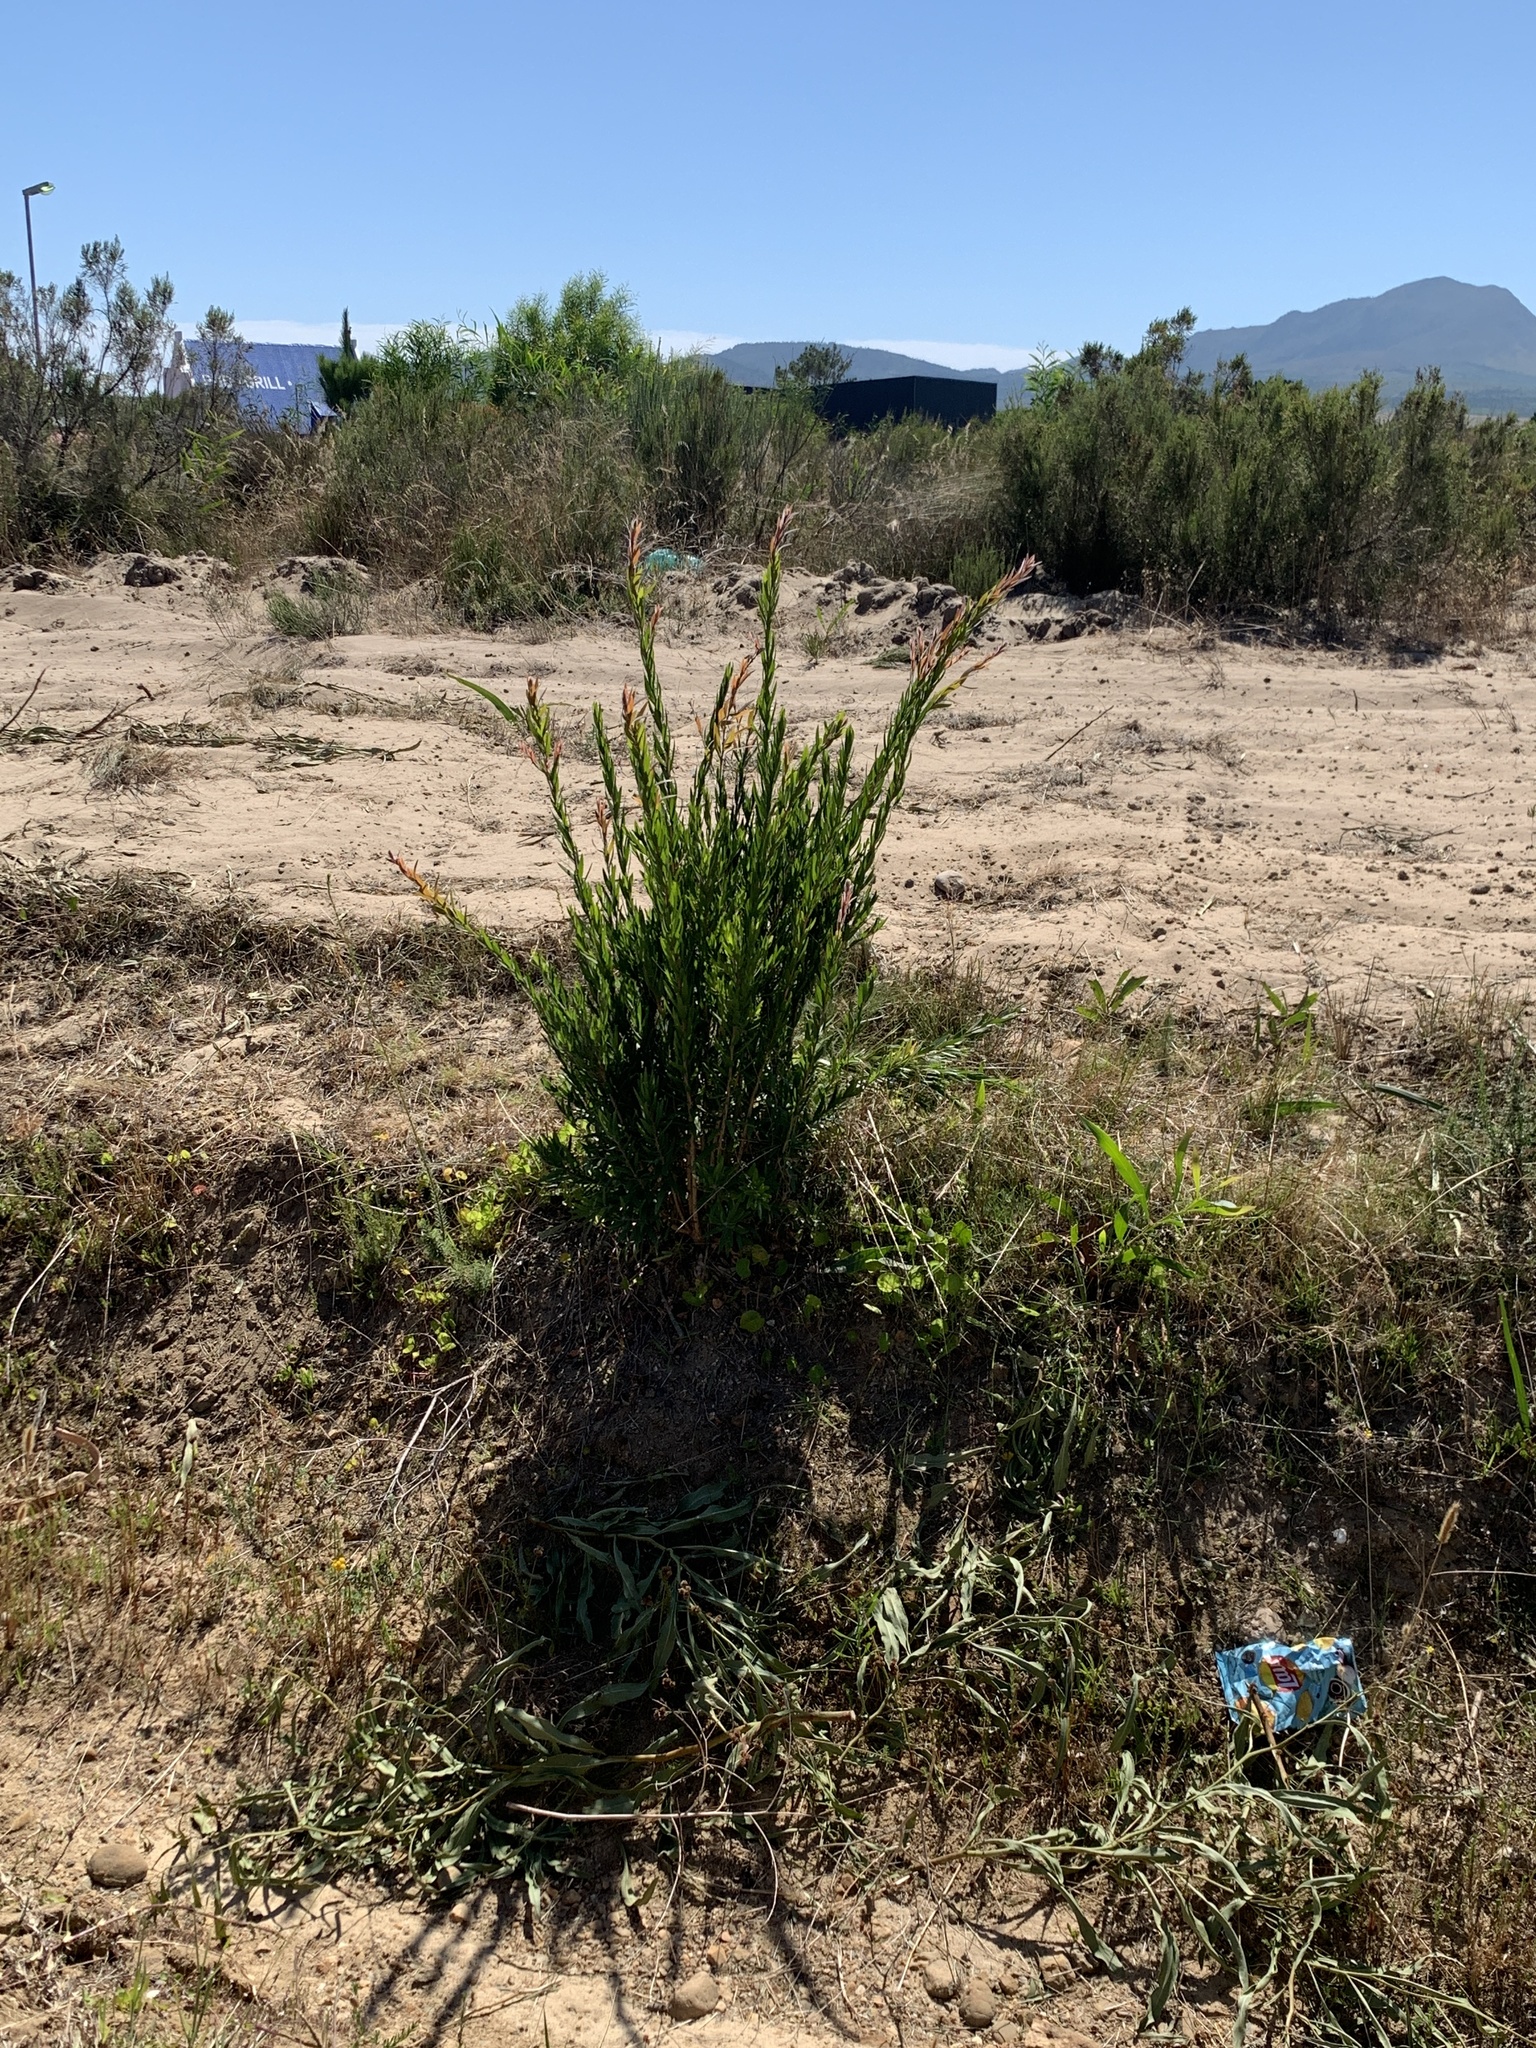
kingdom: Plantae
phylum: Tracheophyta
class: Magnoliopsida
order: Myrtales
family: Myrtaceae
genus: Callistemon
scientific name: Callistemon viminalis
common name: Drooping bottlebrush
